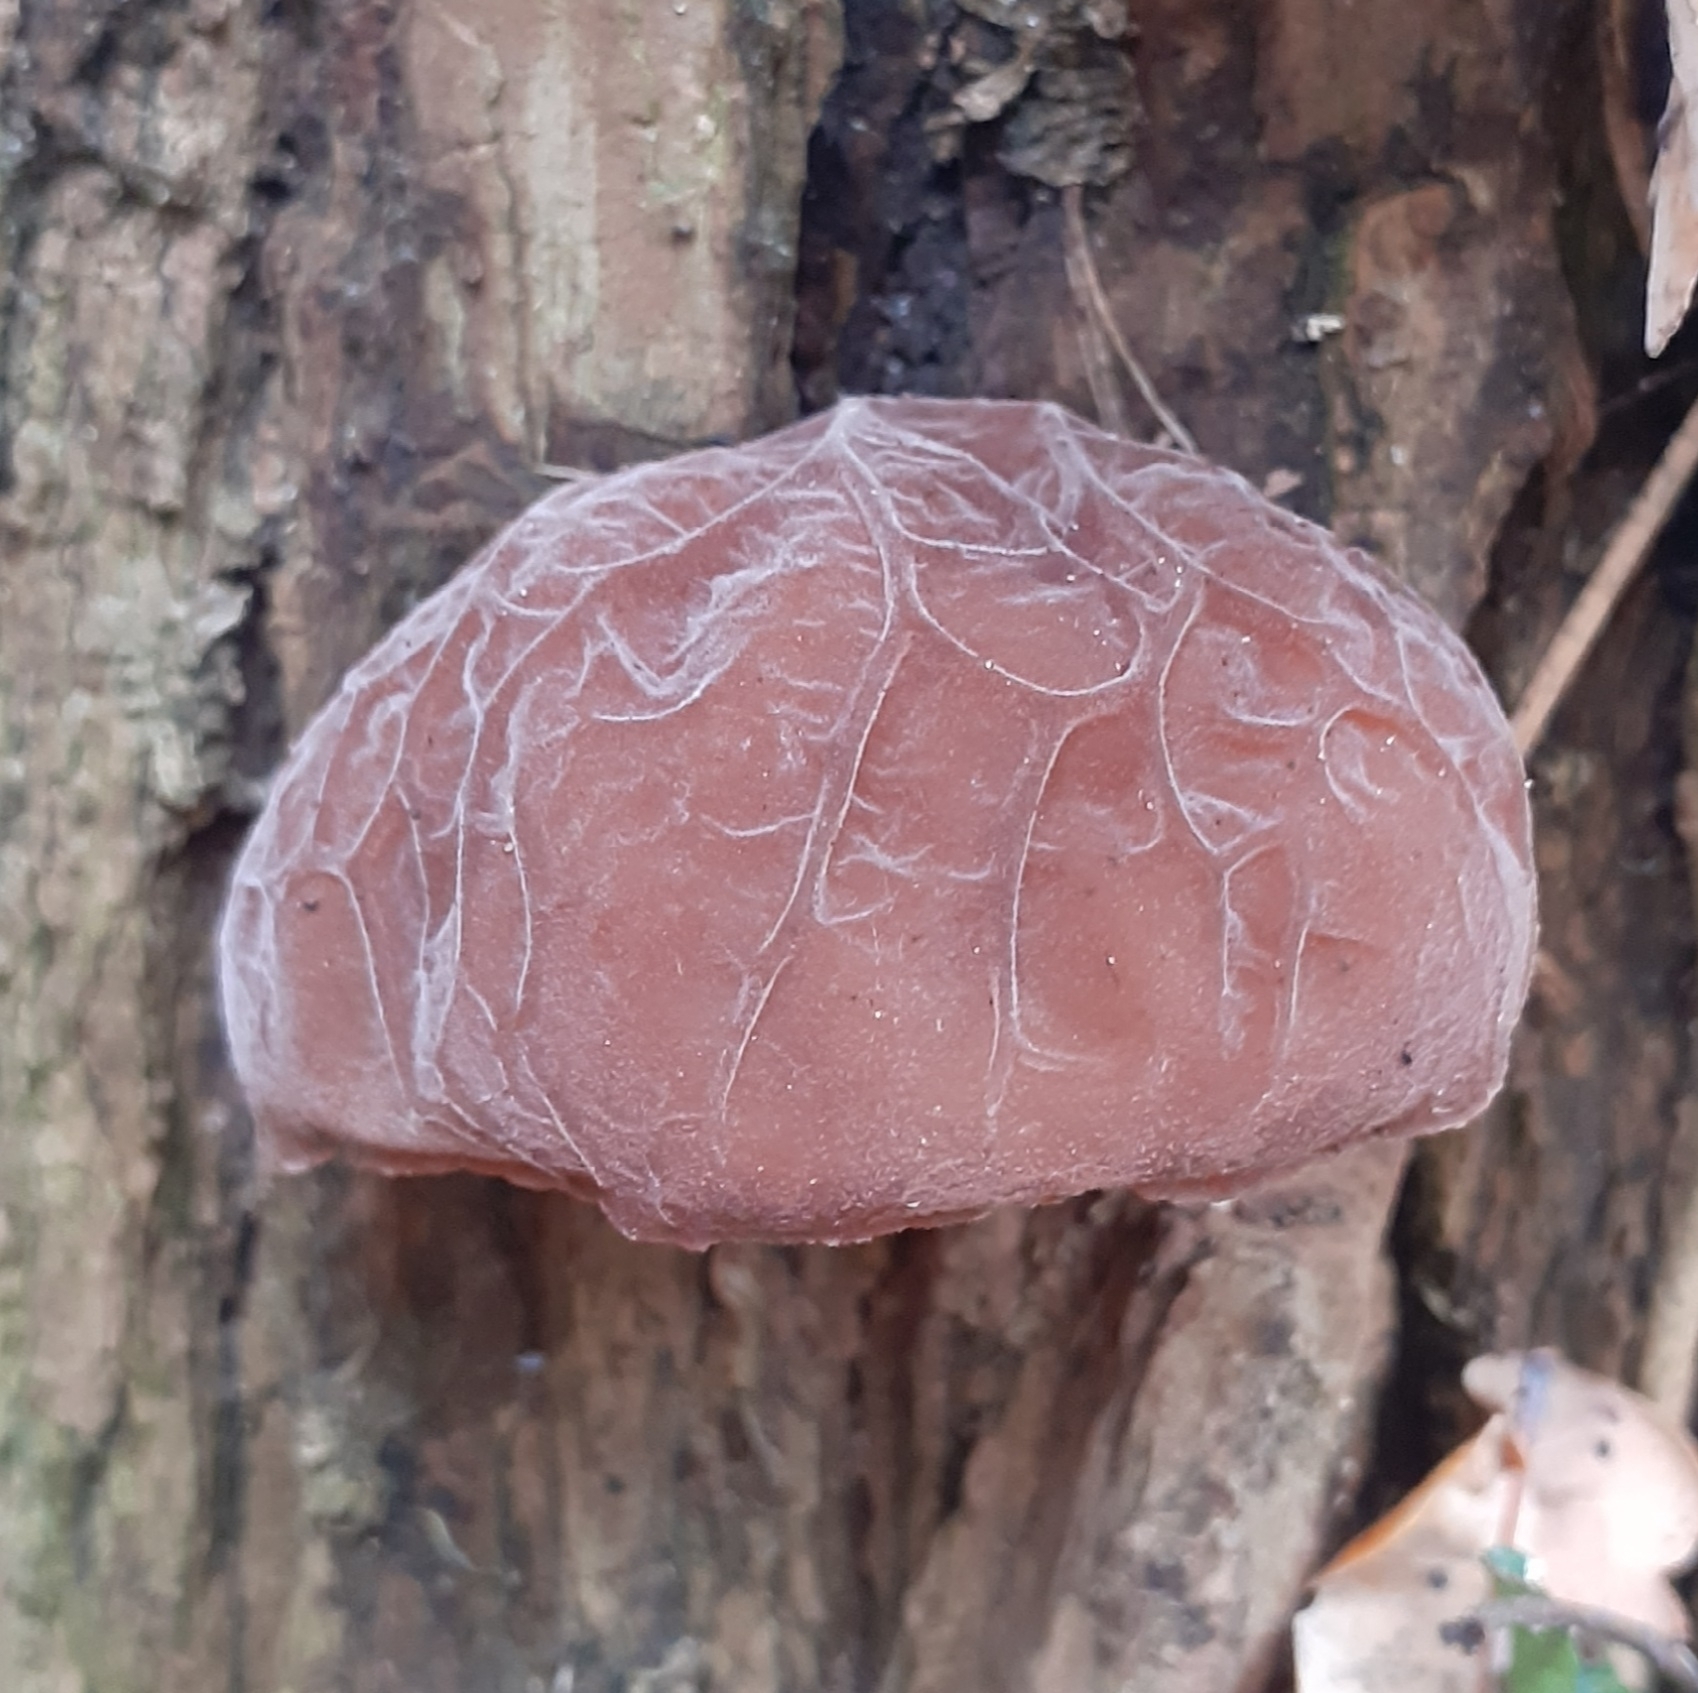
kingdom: Fungi
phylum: Basidiomycota
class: Agaricomycetes
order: Auriculariales
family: Auriculariaceae
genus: Auricularia
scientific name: Auricularia auricula-judae
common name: Jelly ear
